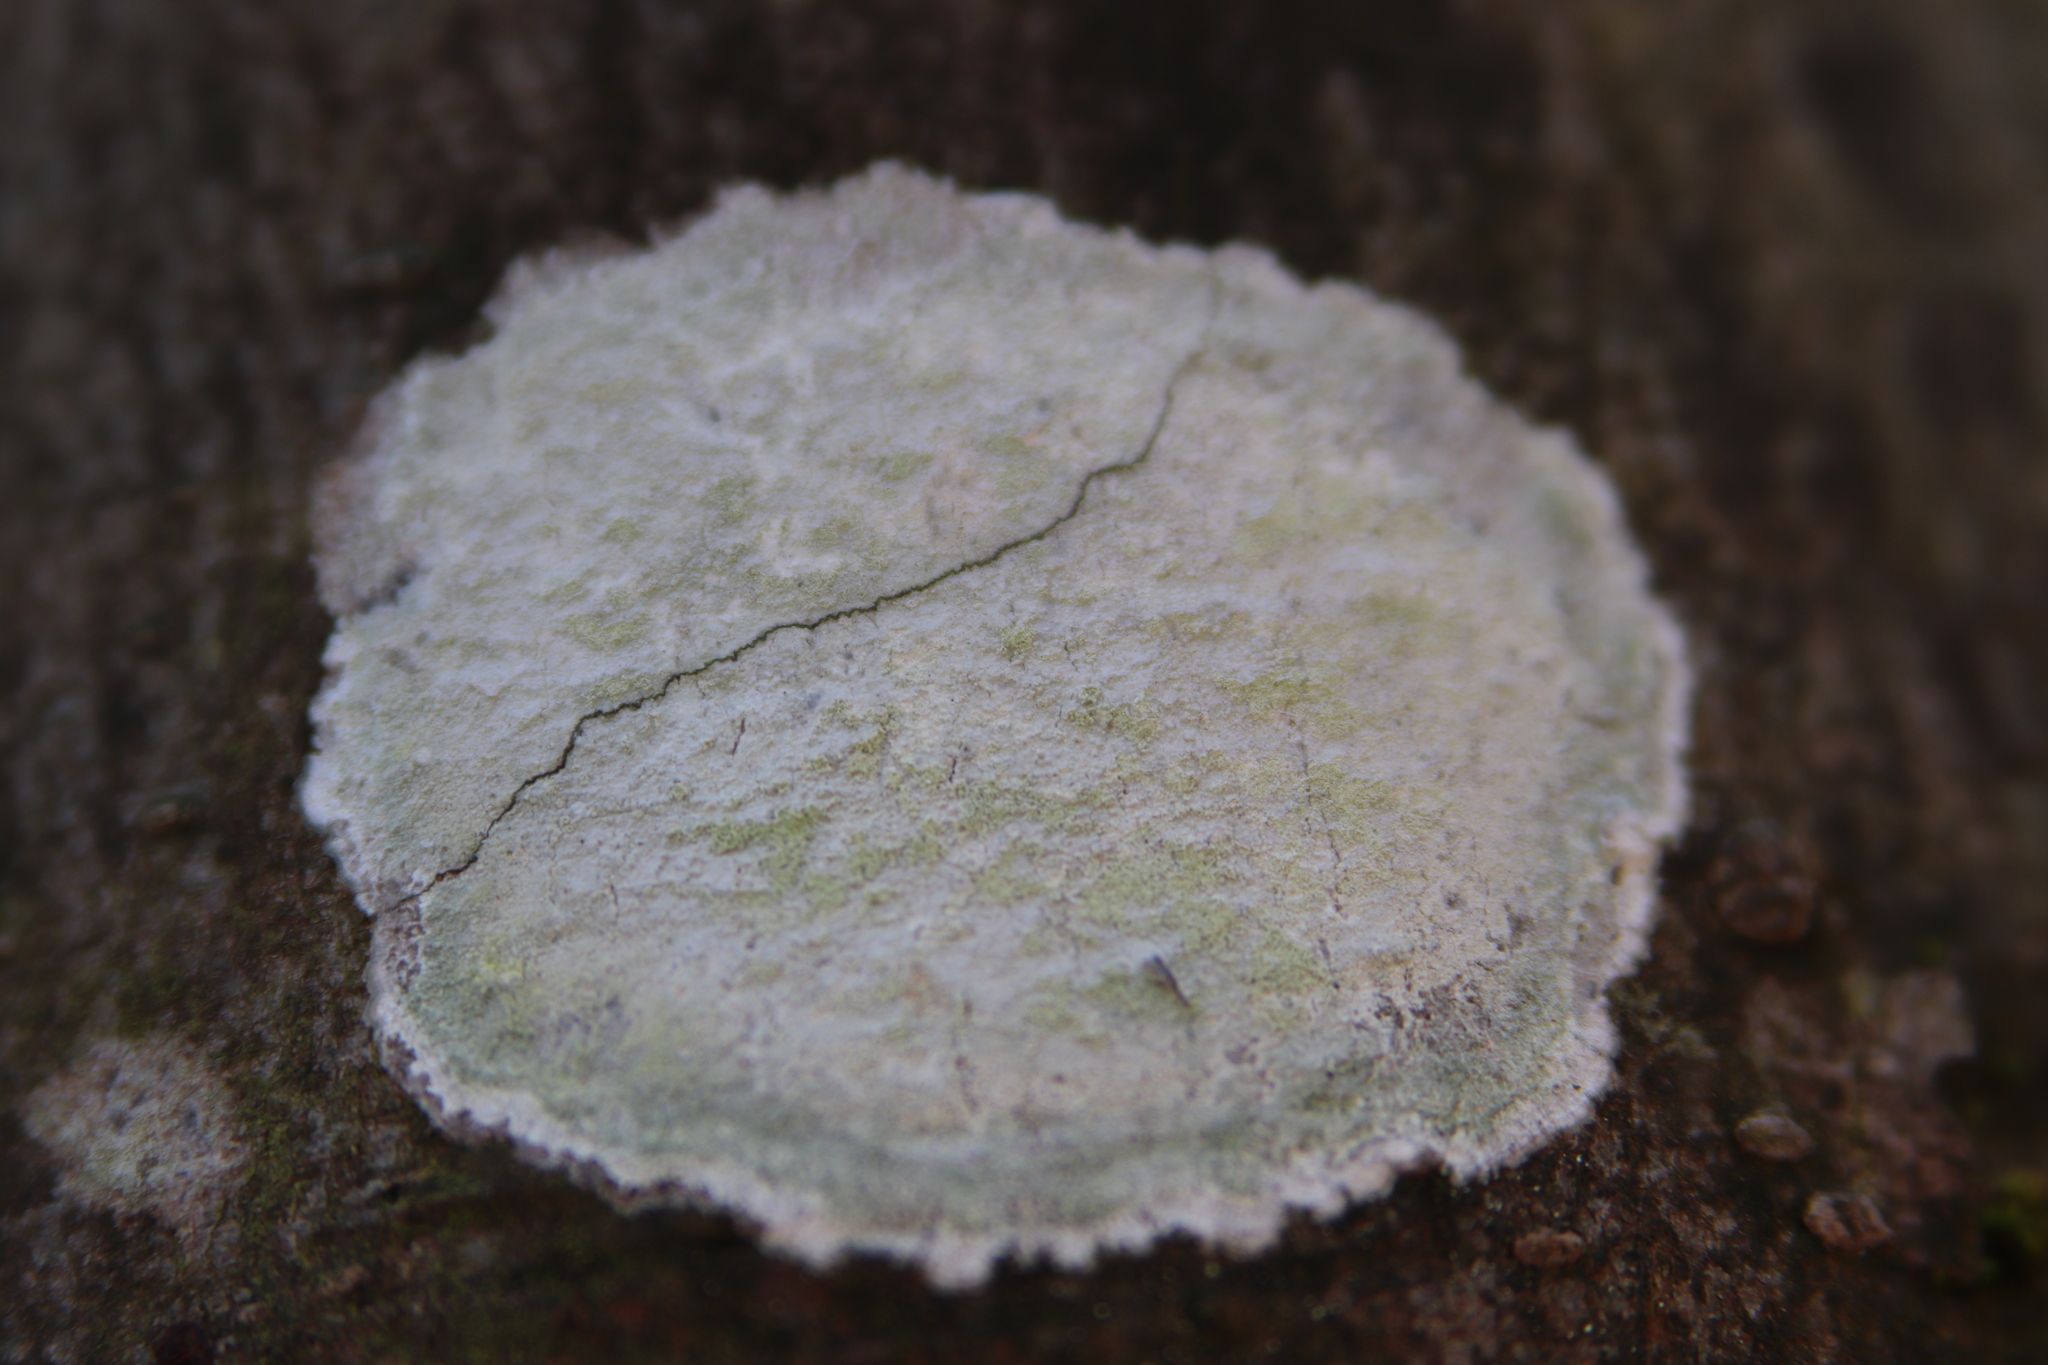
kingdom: Fungi
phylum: Ascomycota
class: Lecanoromycetes
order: Ostropales
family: Phlyctidaceae
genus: Phlyctis
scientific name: Phlyctis argena
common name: Whitewash lichen
